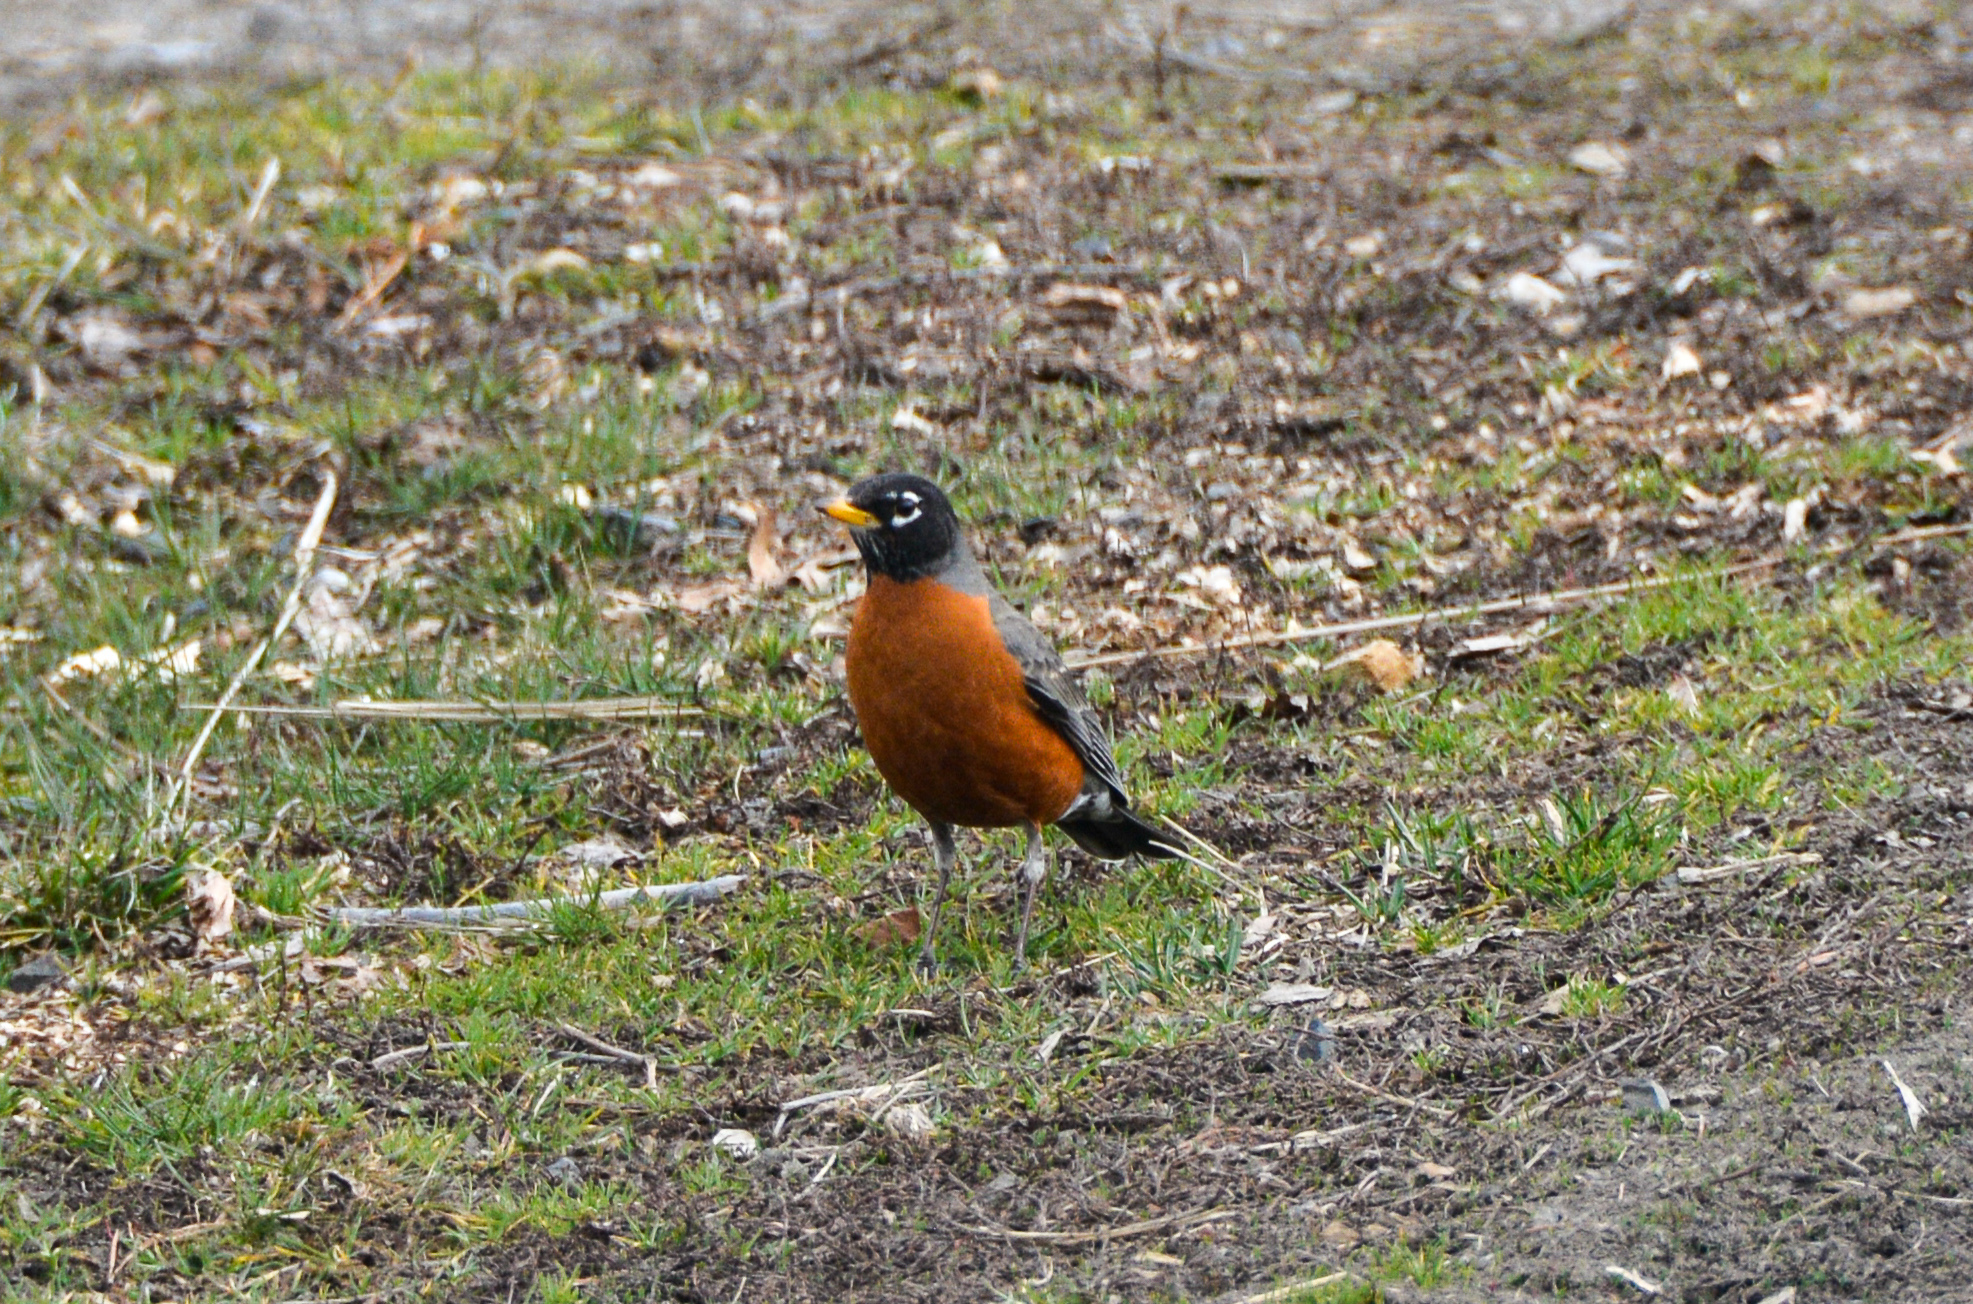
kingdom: Animalia
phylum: Chordata
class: Aves
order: Passeriformes
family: Turdidae
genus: Turdus
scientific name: Turdus migratorius
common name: American robin
